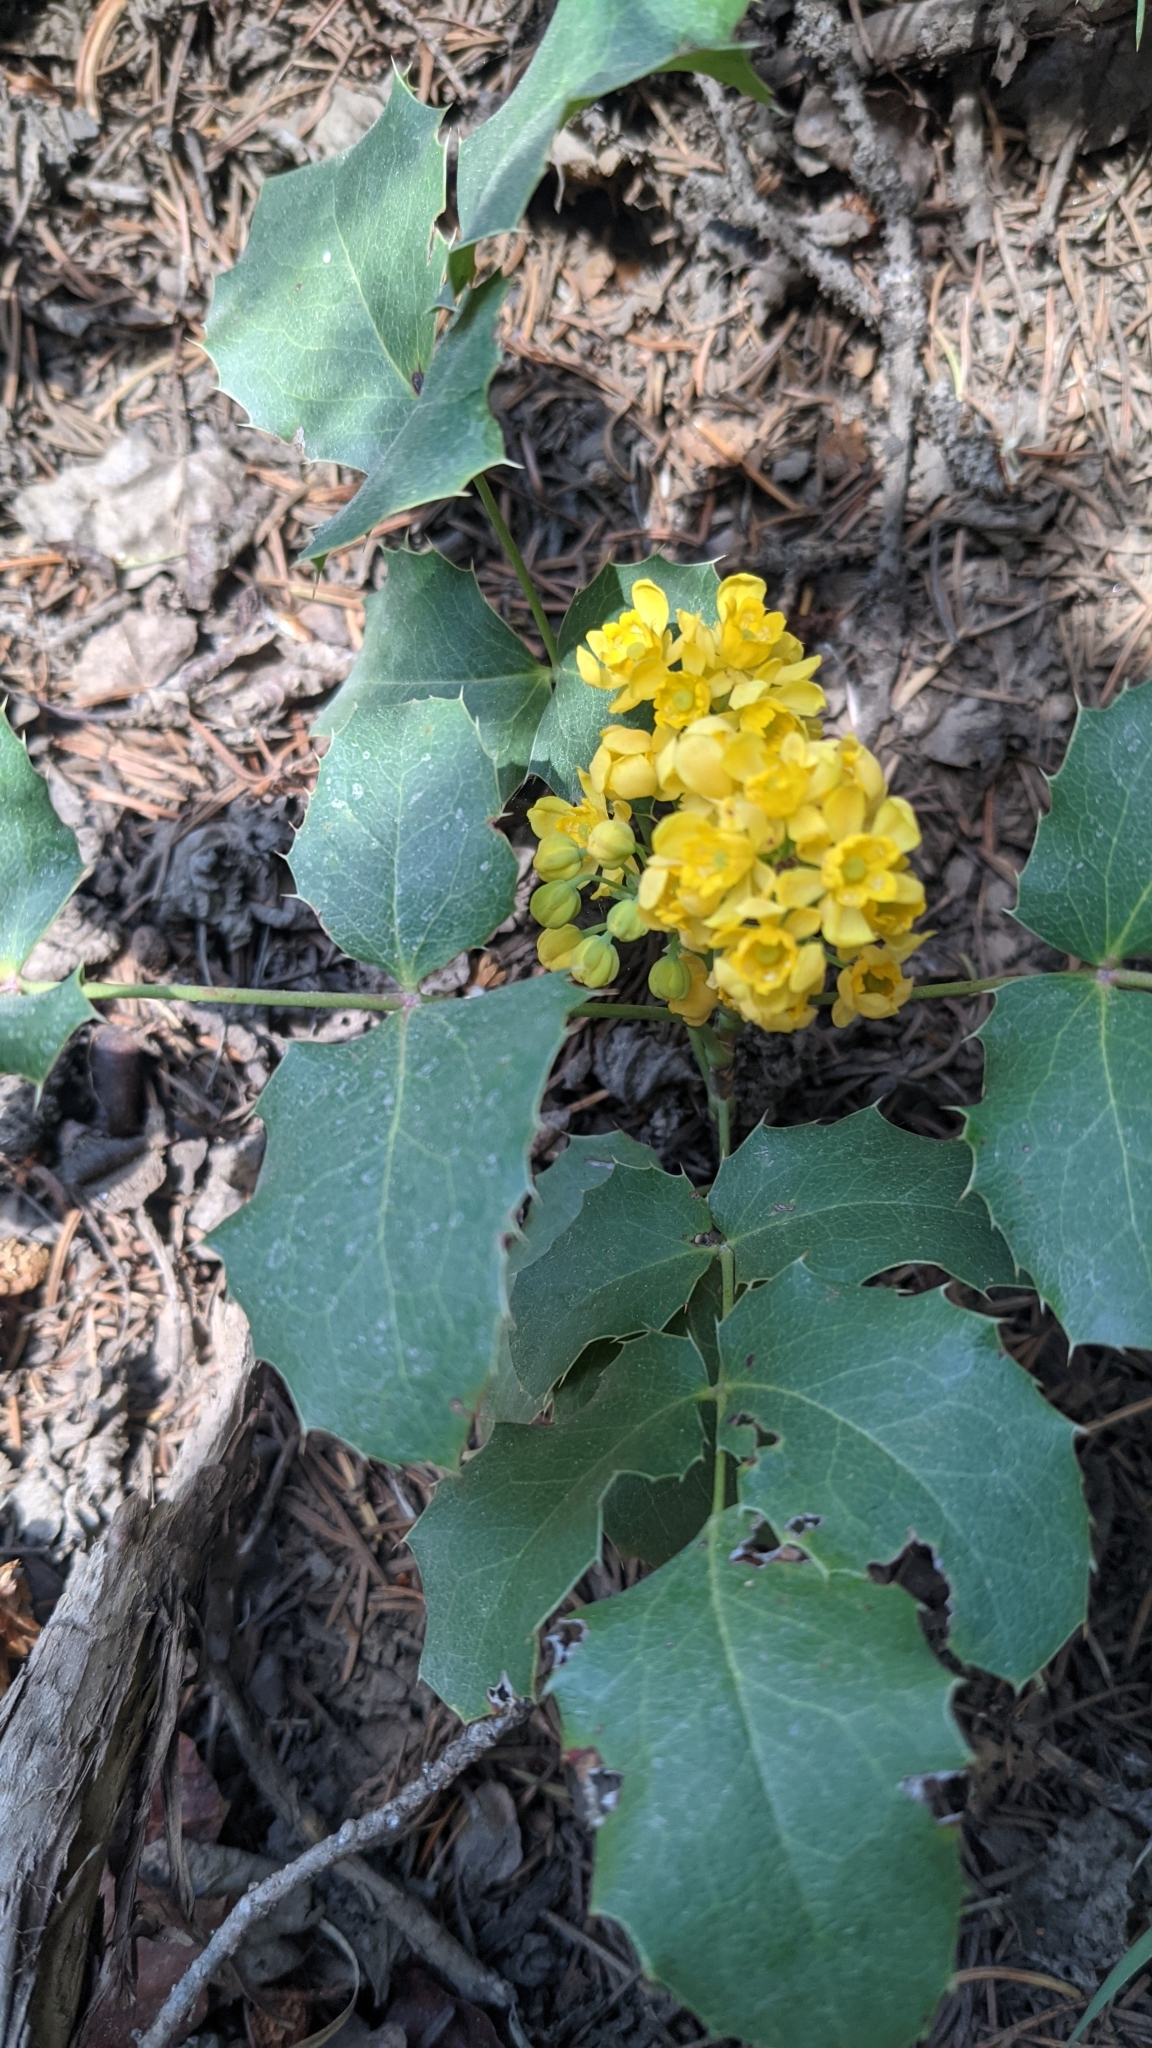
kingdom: Plantae
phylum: Tracheophyta
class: Magnoliopsida
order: Ranunculales
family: Berberidaceae
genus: Mahonia
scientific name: Mahonia repens
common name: Creeping oregon-grape
